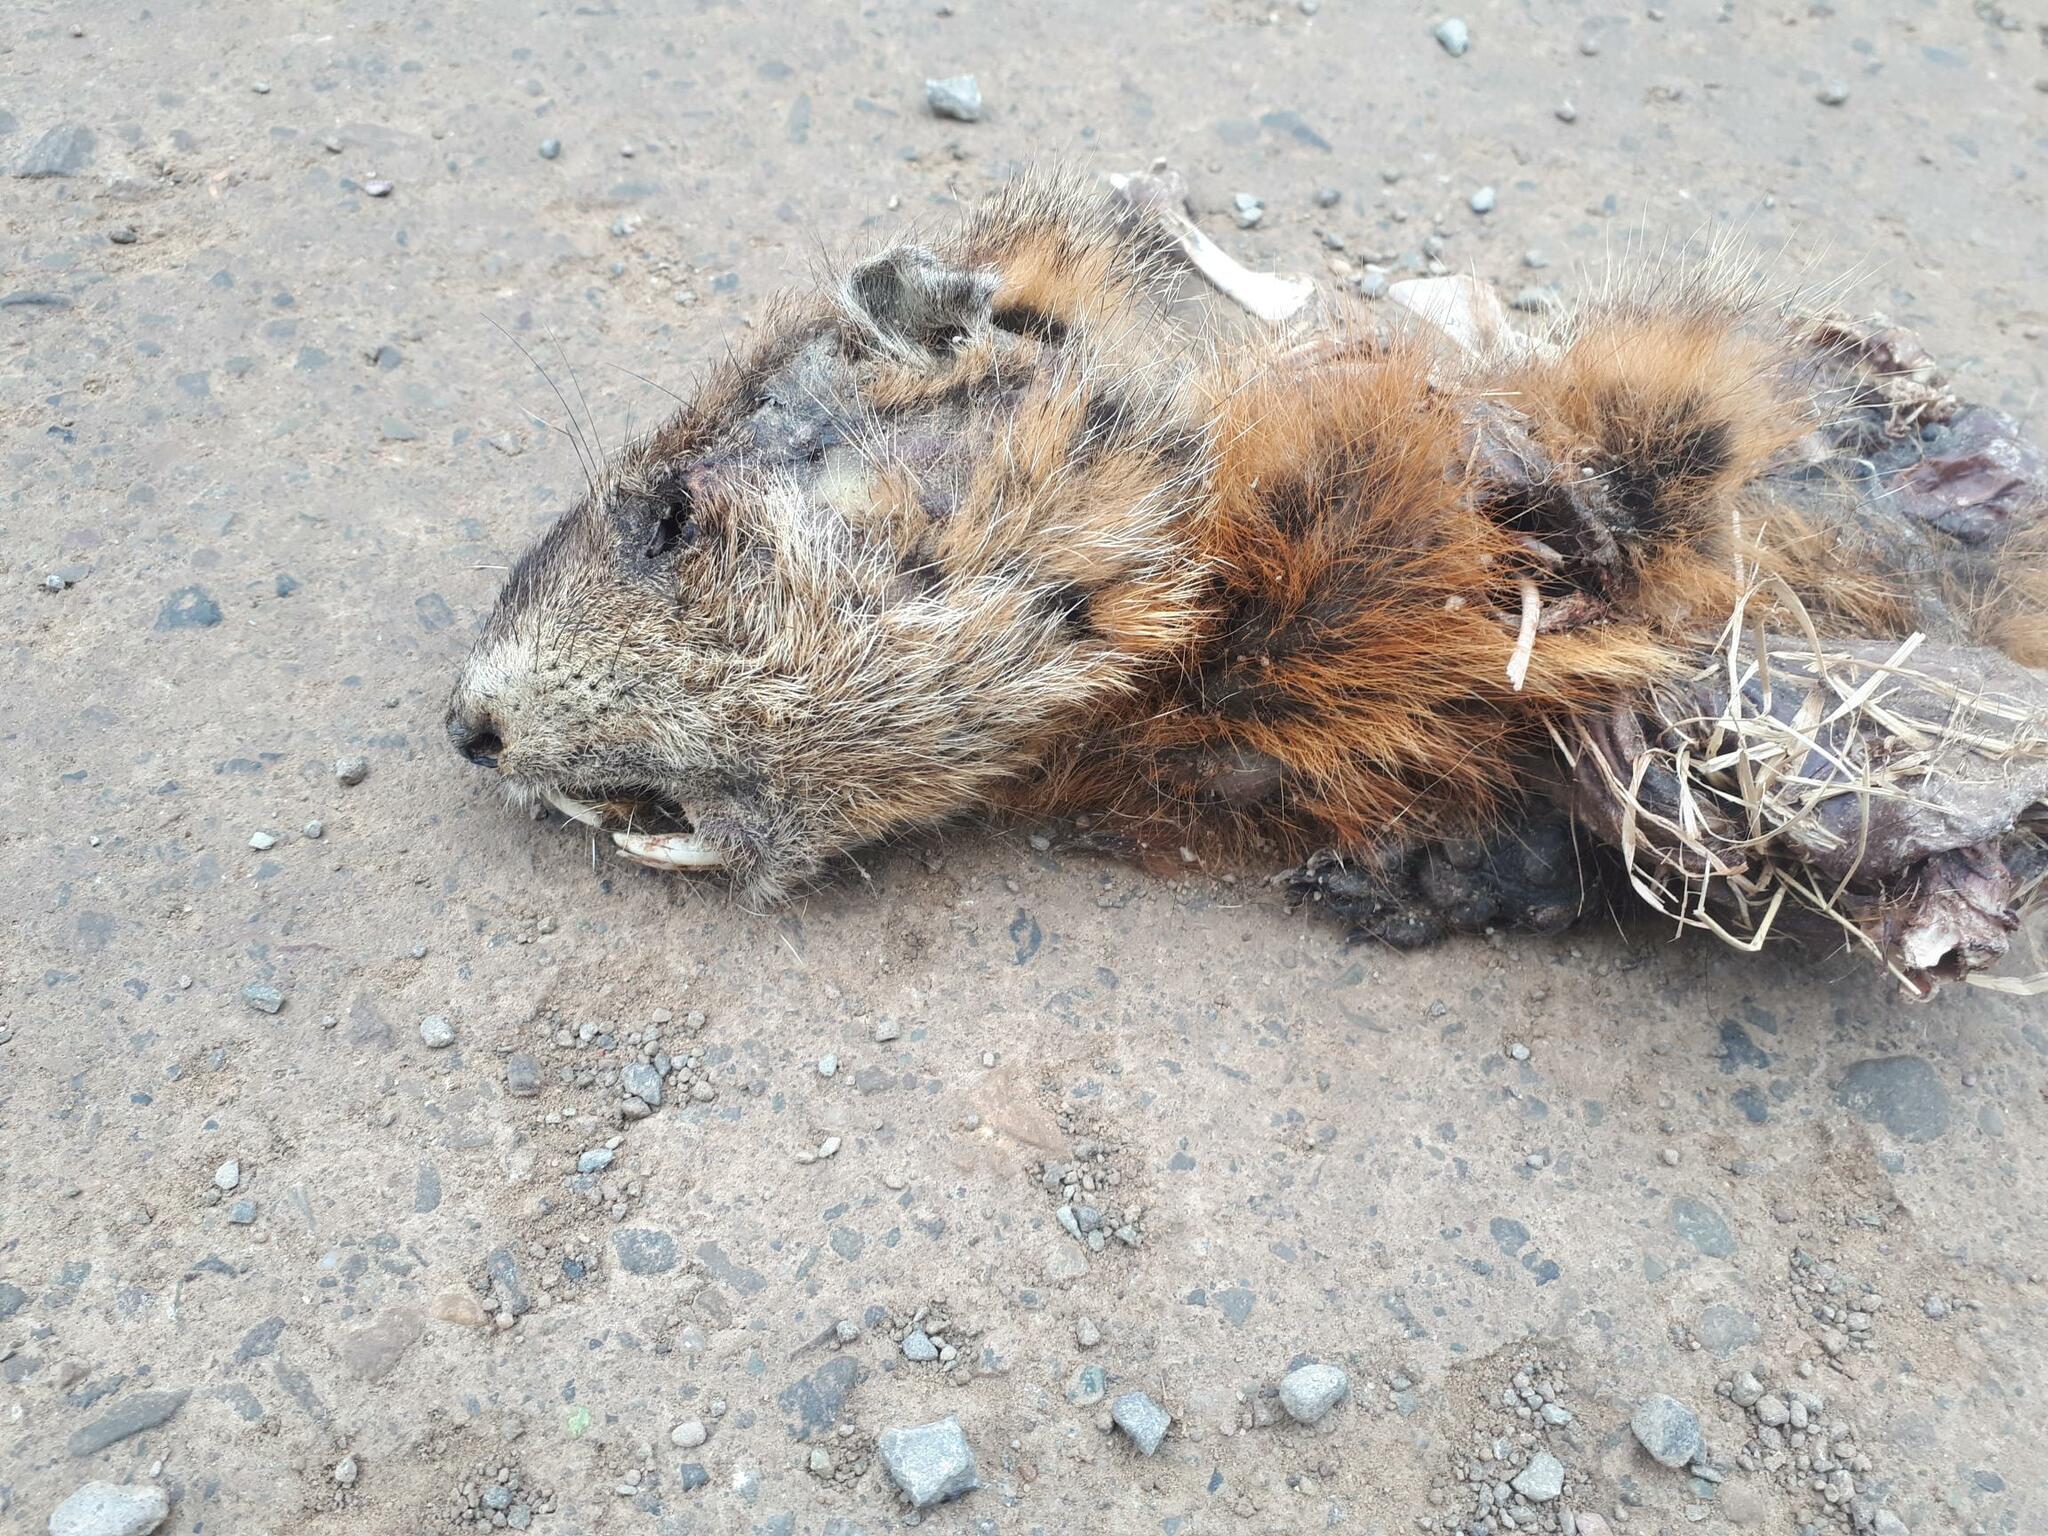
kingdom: Animalia
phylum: Chordata
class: Mammalia
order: Rodentia
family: Sciuridae
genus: Marmota
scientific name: Marmota monax
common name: Groundhog
